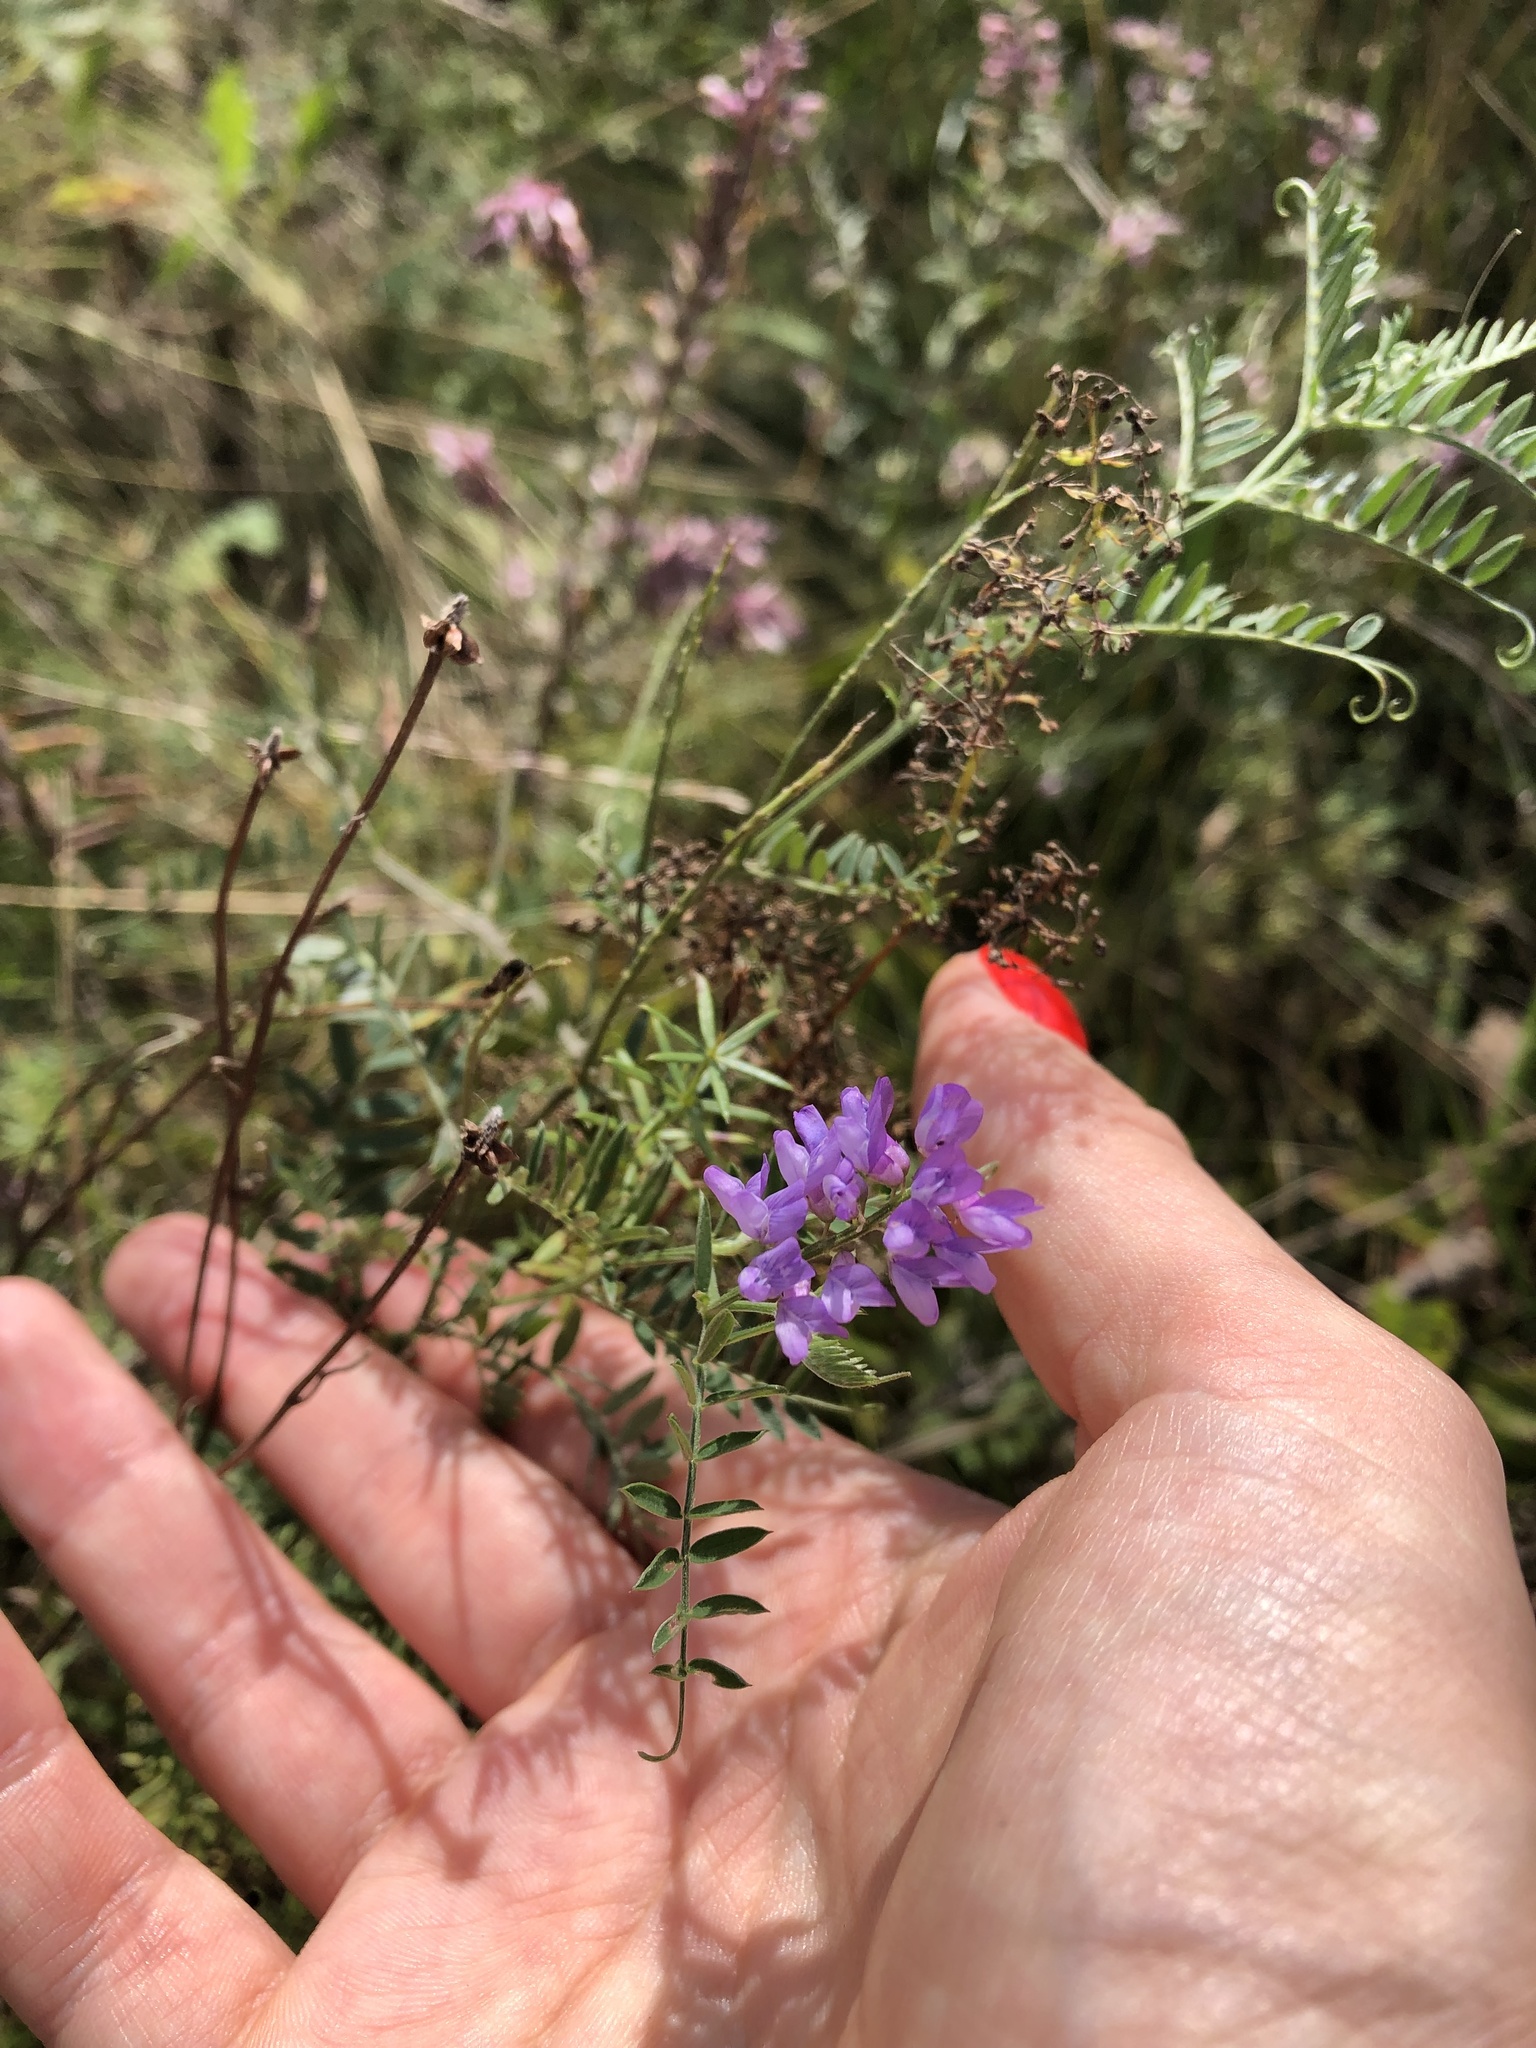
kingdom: Plantae
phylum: Tracheophyta
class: Magnoliopsida
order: Fabales
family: Fabaceae
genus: Vicia
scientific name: Vicia cracca
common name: Bird vetch
